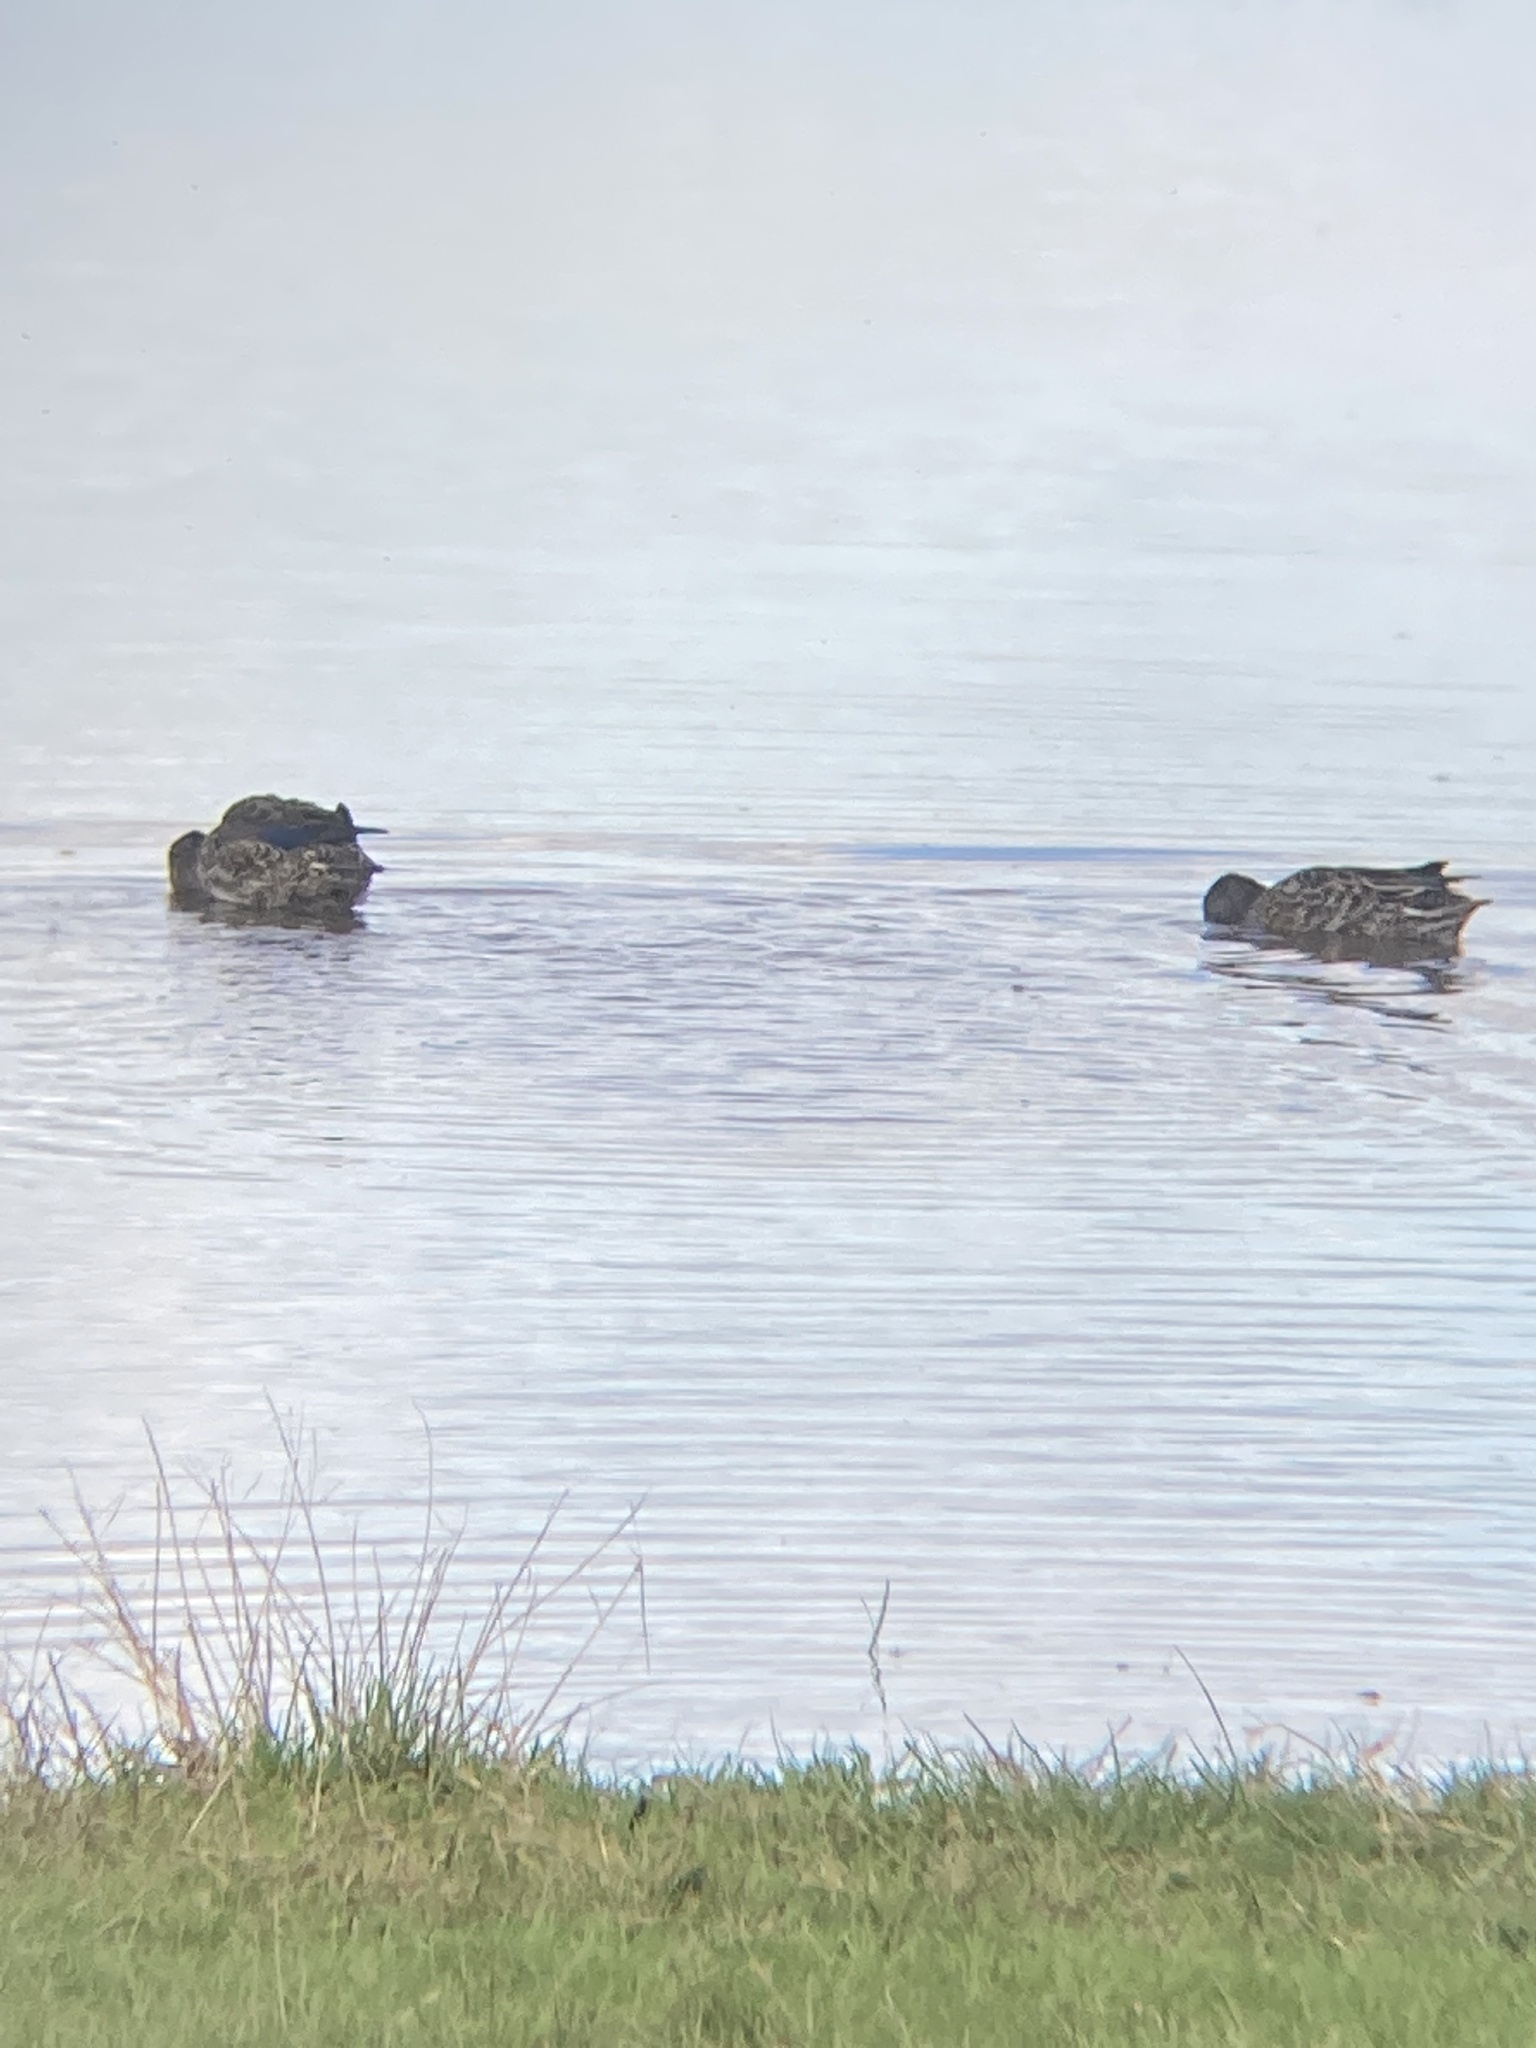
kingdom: Animalia
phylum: Chordata
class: Aves
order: Anseriformes
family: Anatidae
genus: Anas
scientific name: Anas crecca
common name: Eurasian teal
